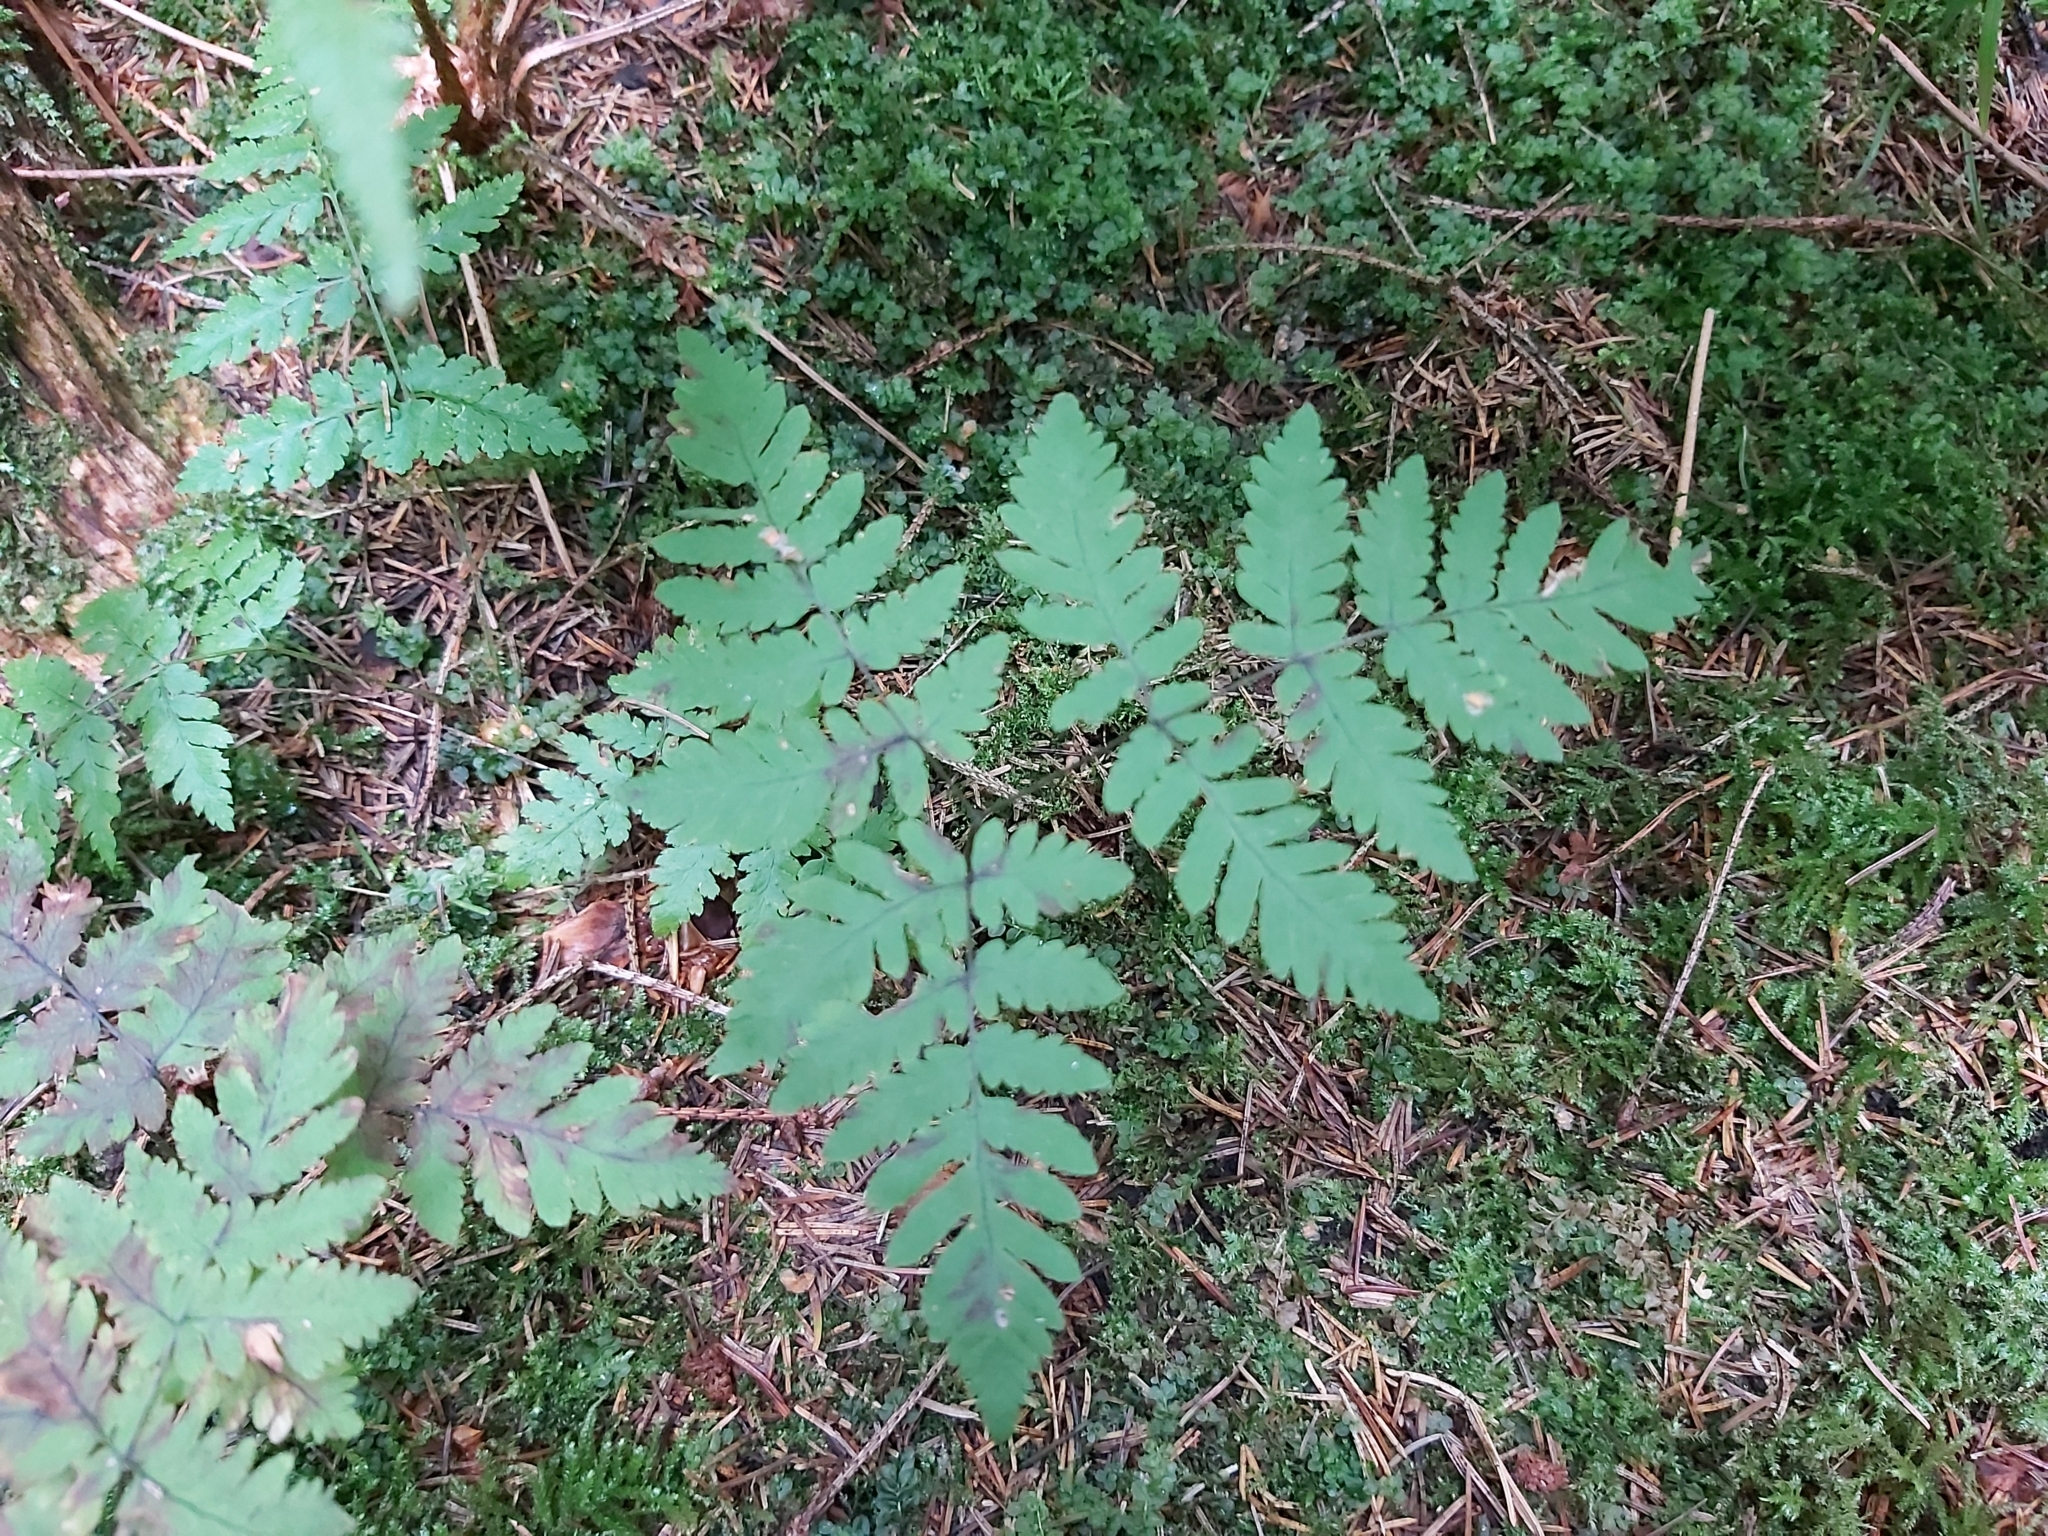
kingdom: Plantae
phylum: Tracheophyta
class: Polypodiopsida
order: Polypodiales
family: Cystopteridaceae
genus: Gymnocarpium
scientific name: Gymnocarpium dryopteris
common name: Oak fern
